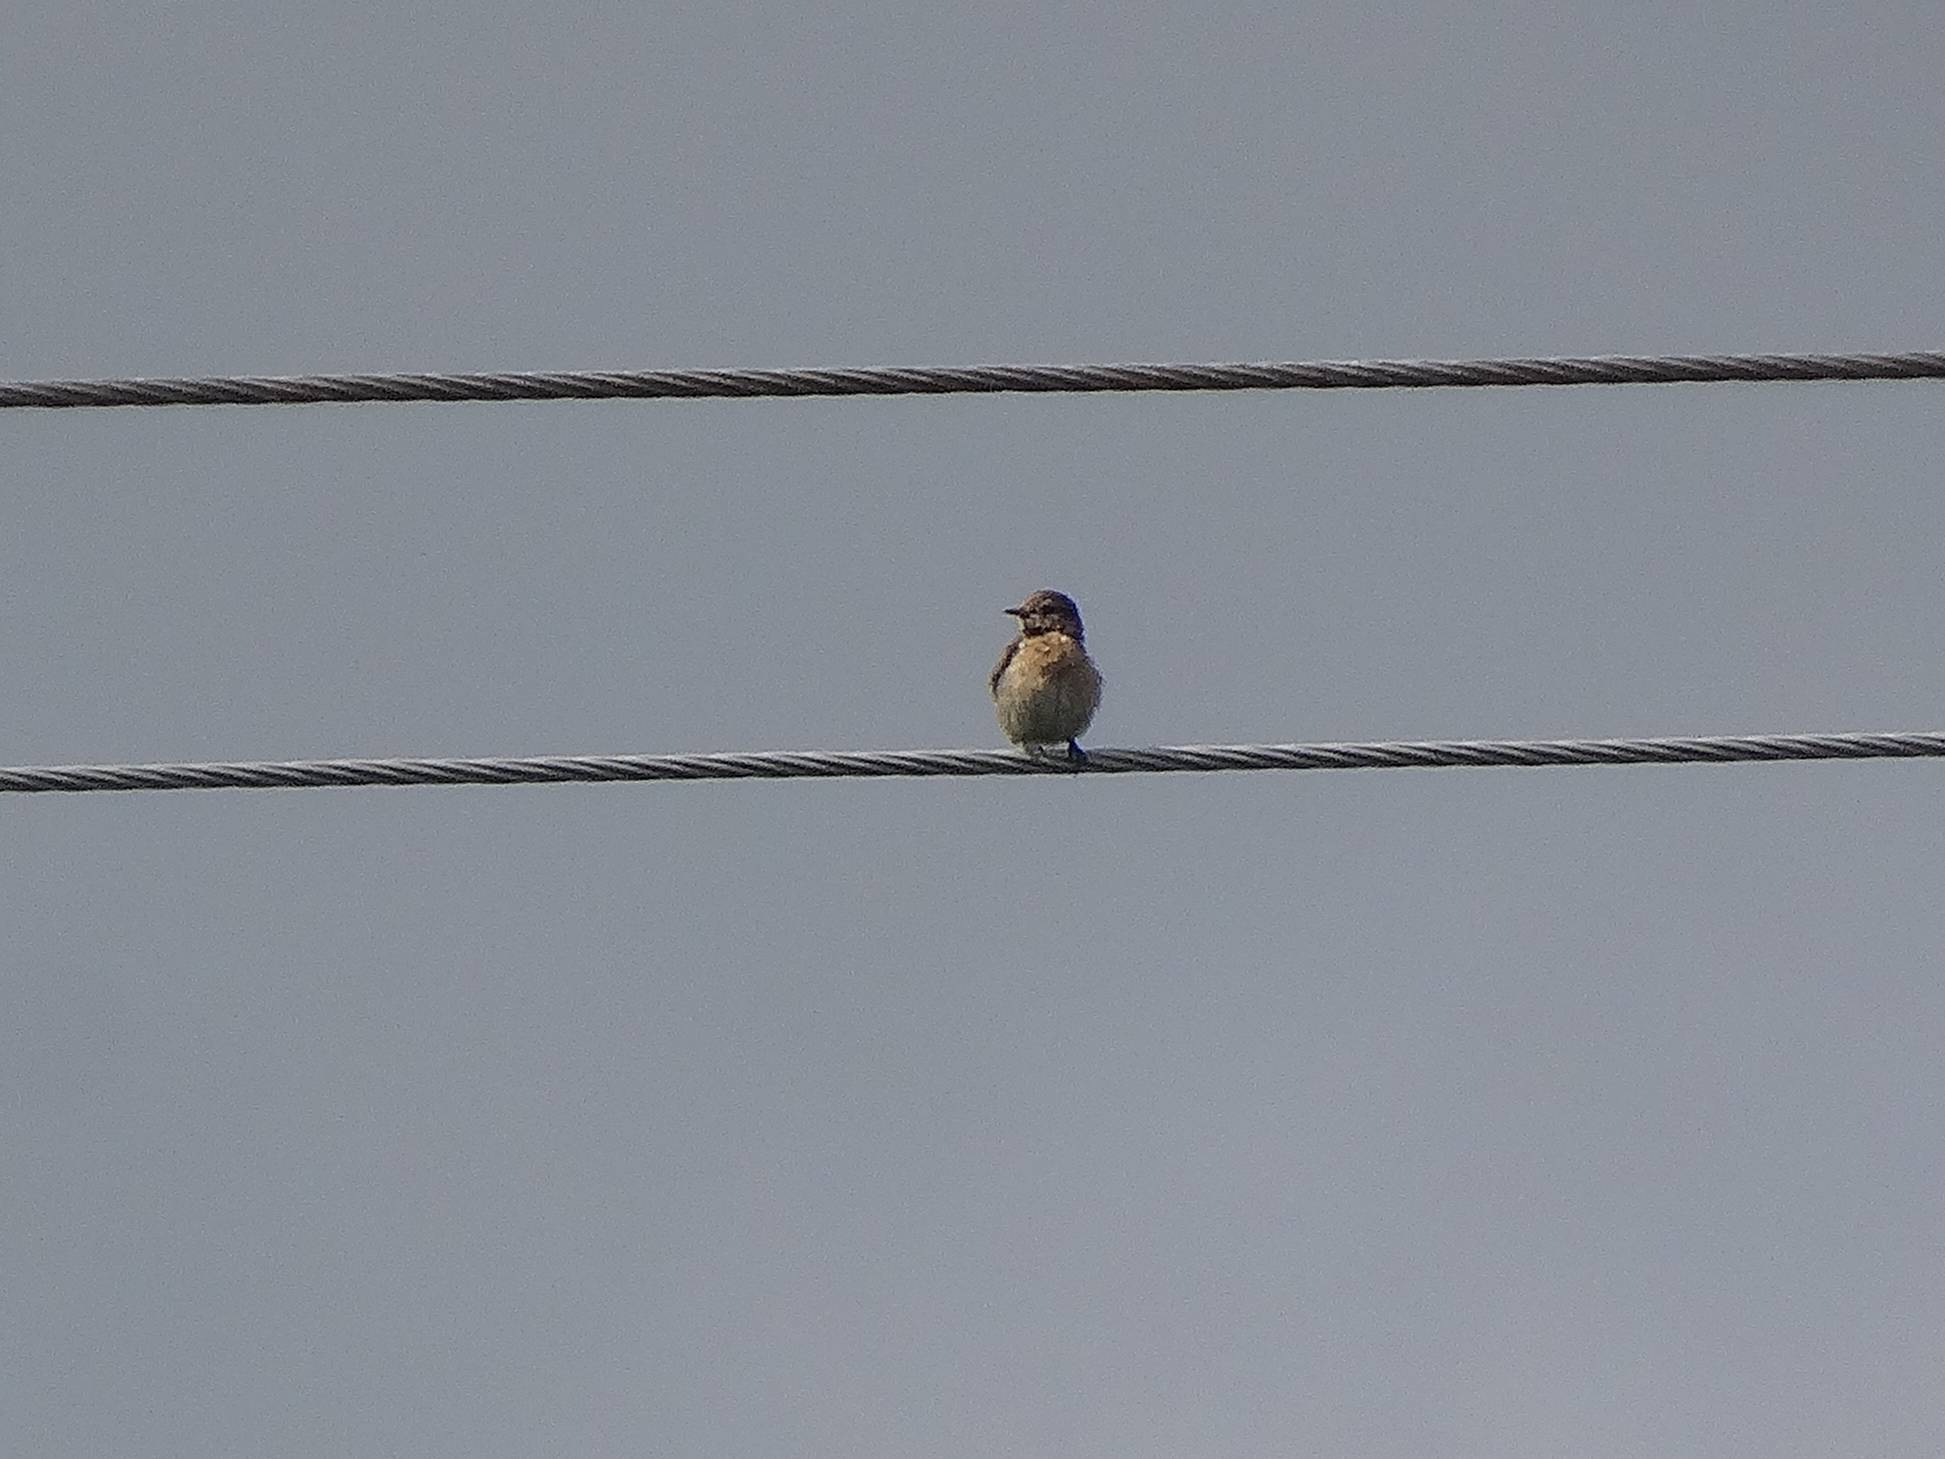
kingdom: Animalia
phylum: Chordata
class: Aves
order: Passeriformes
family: Muscicapidae
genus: Saxicola
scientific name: Saxicola rubicola
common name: European stonechat
